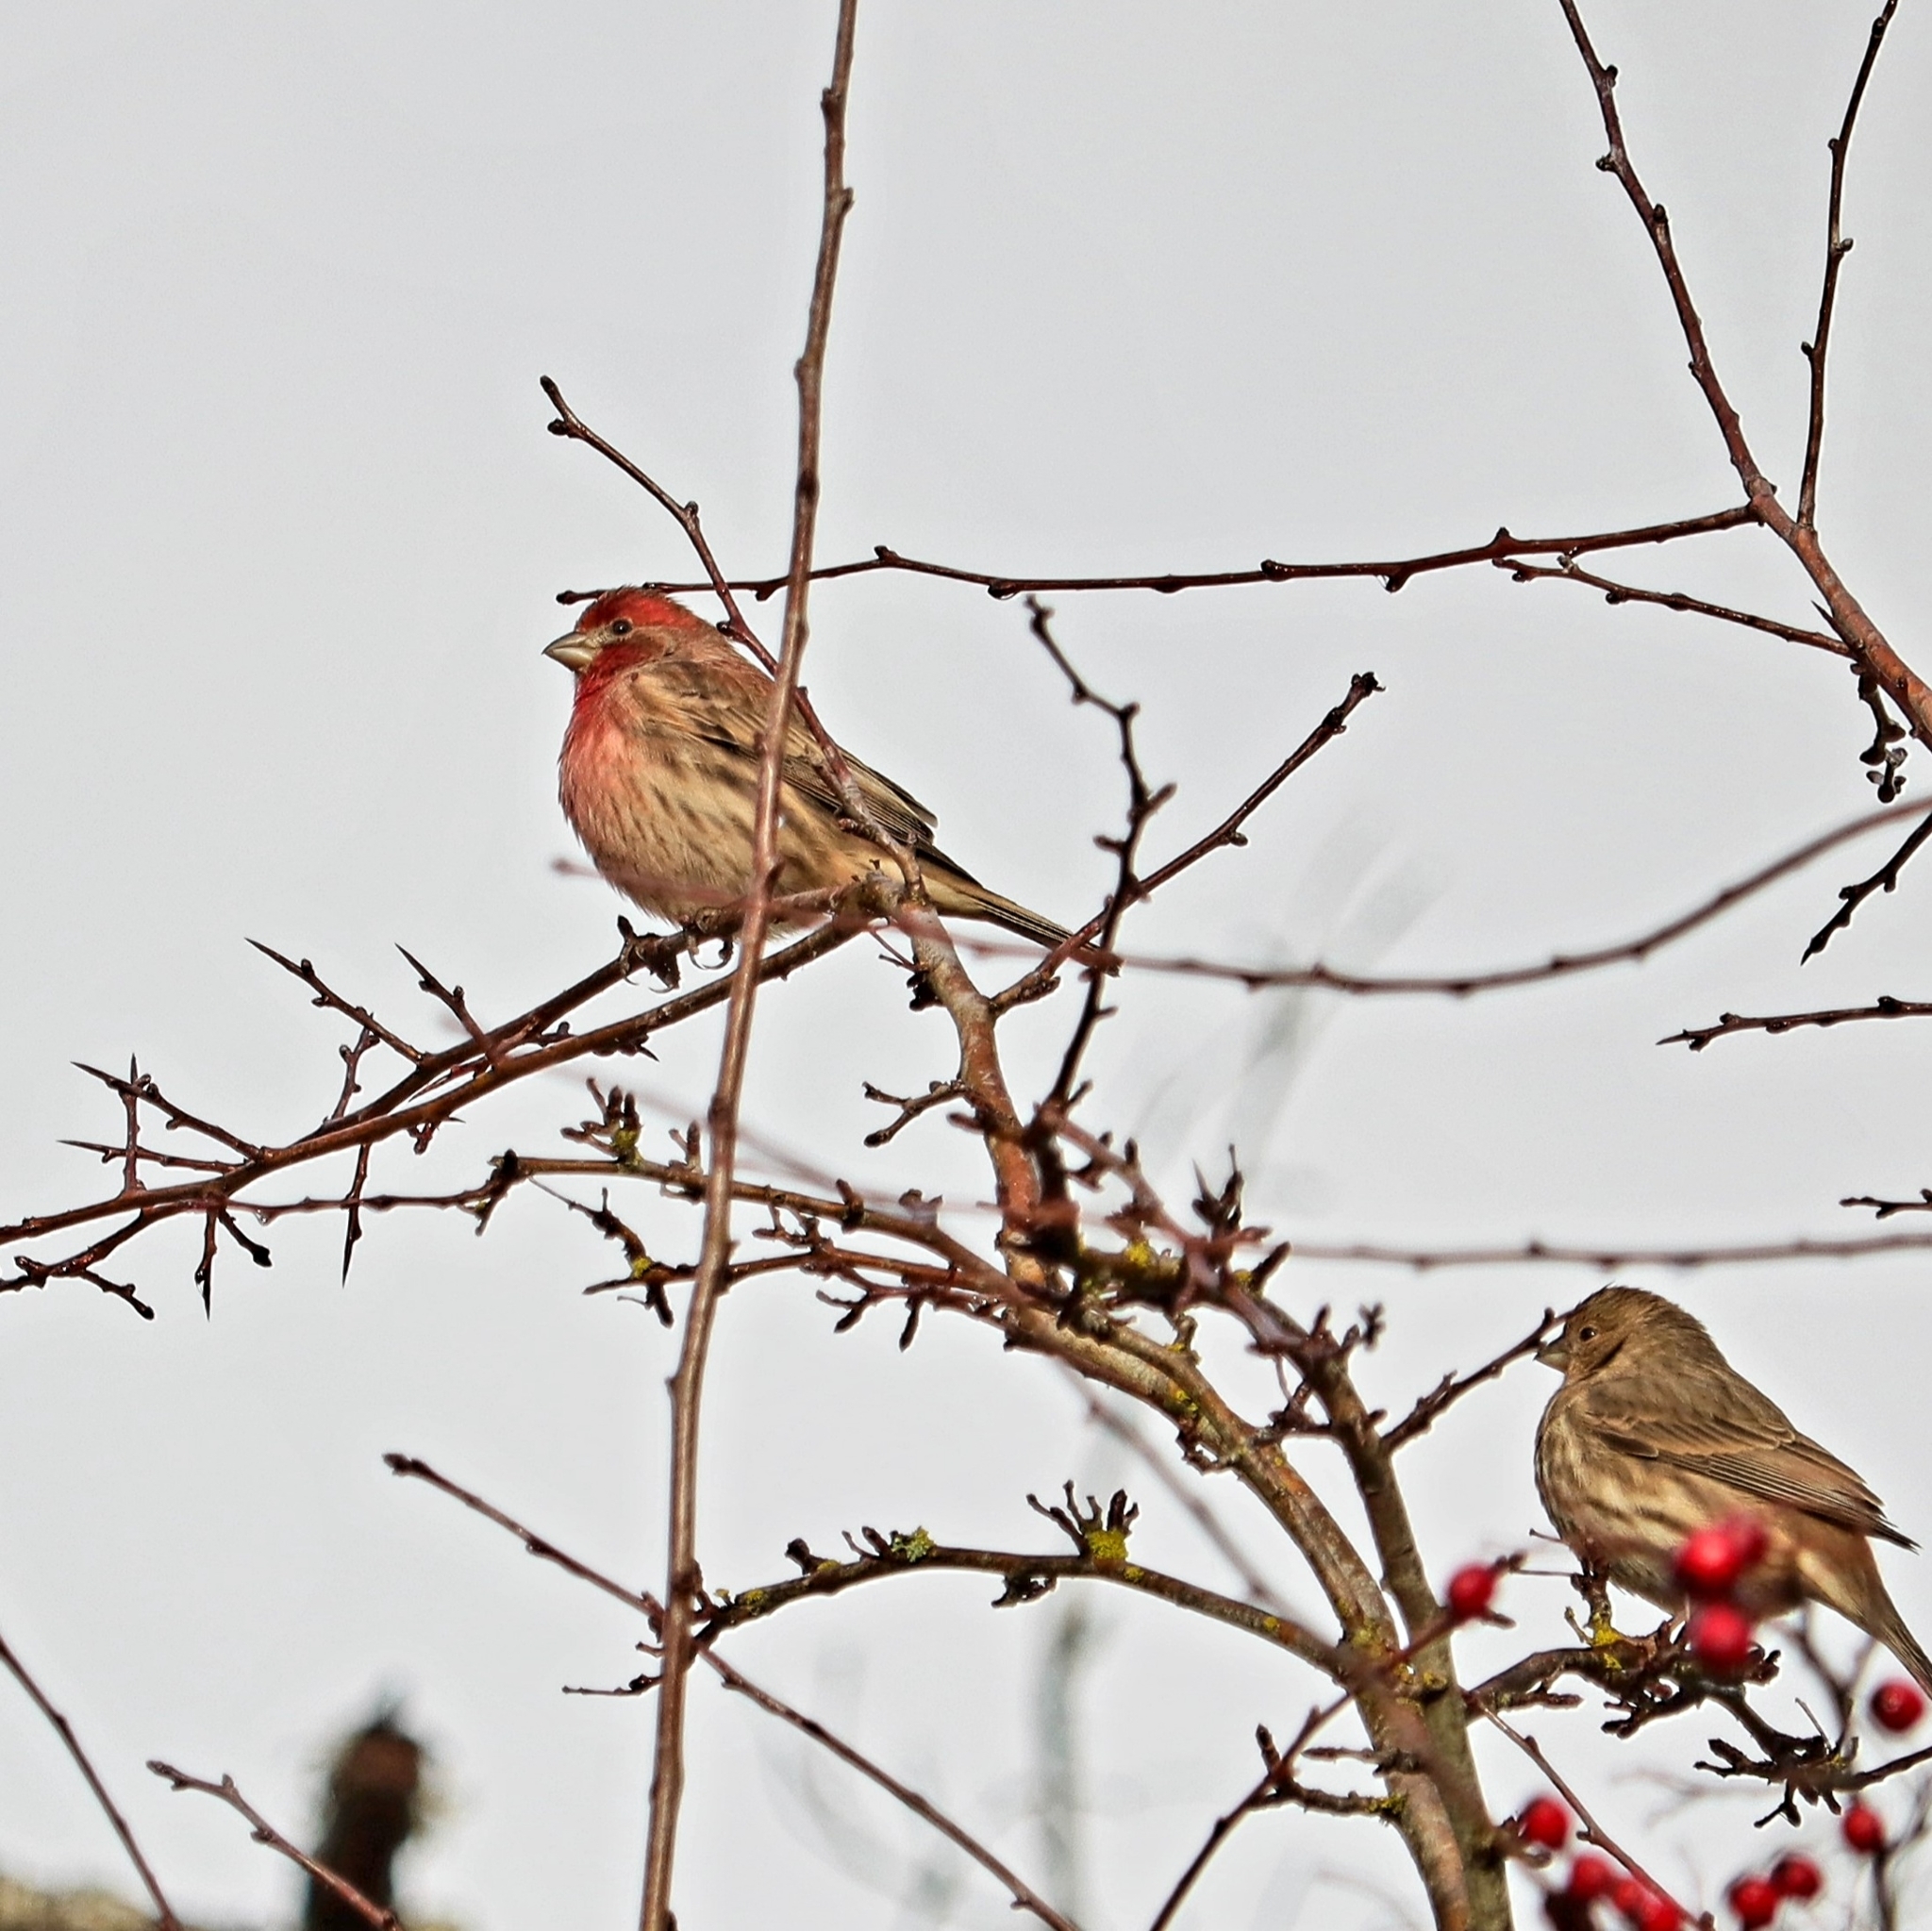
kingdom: Animalia
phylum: Chordata
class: Aves
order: Passeriformes
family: Fringillidae
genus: Haemorhous
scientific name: Haemorhous mexicanus
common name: House finch
